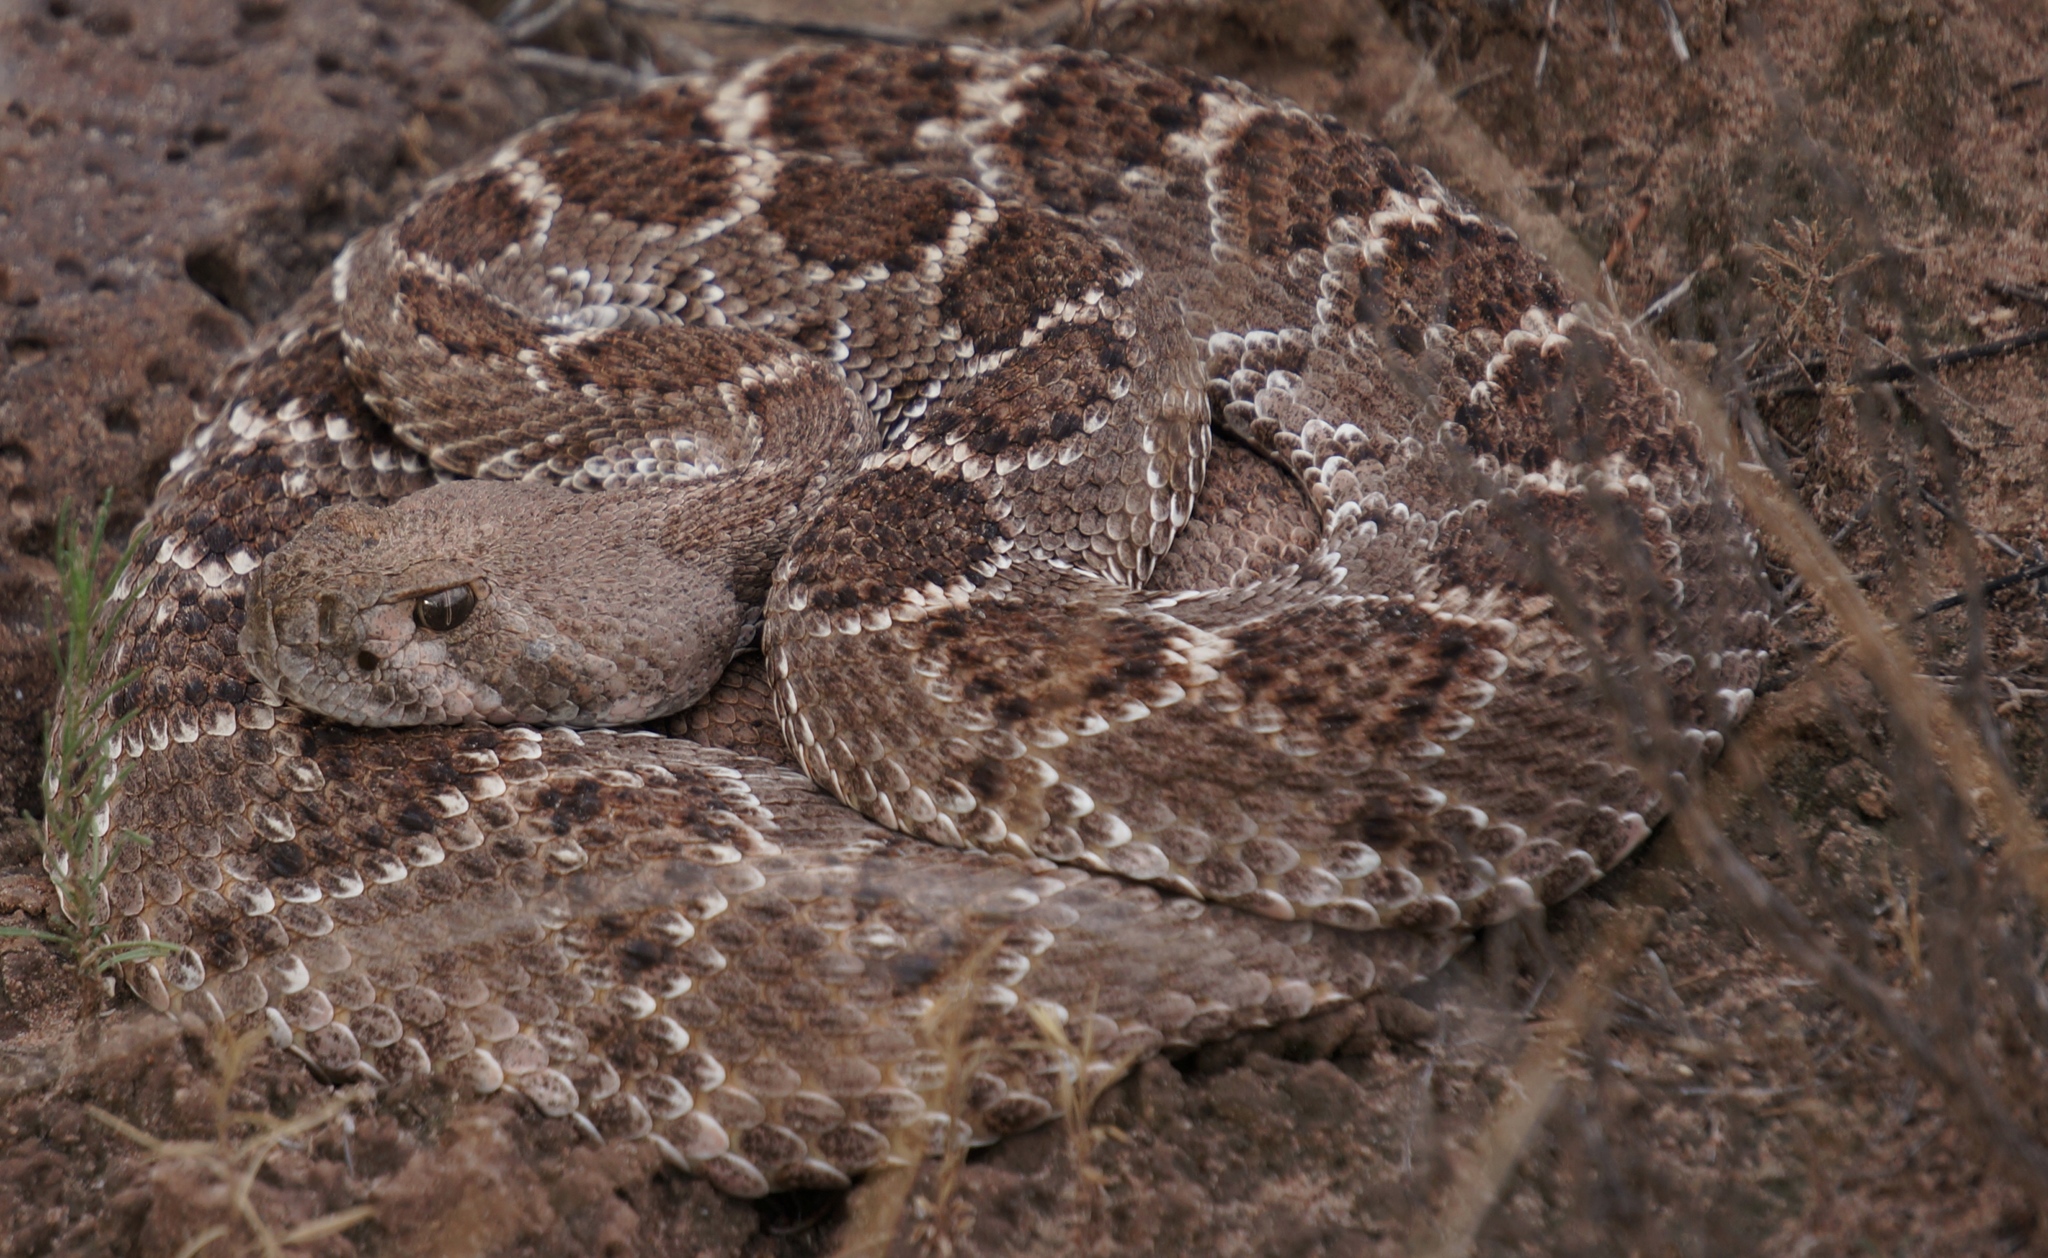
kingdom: Animalia
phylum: Chordata
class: Squamata
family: Viperidae
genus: Crotalus
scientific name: Crotalus atrox
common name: Western diamond-backed rattlesnake
